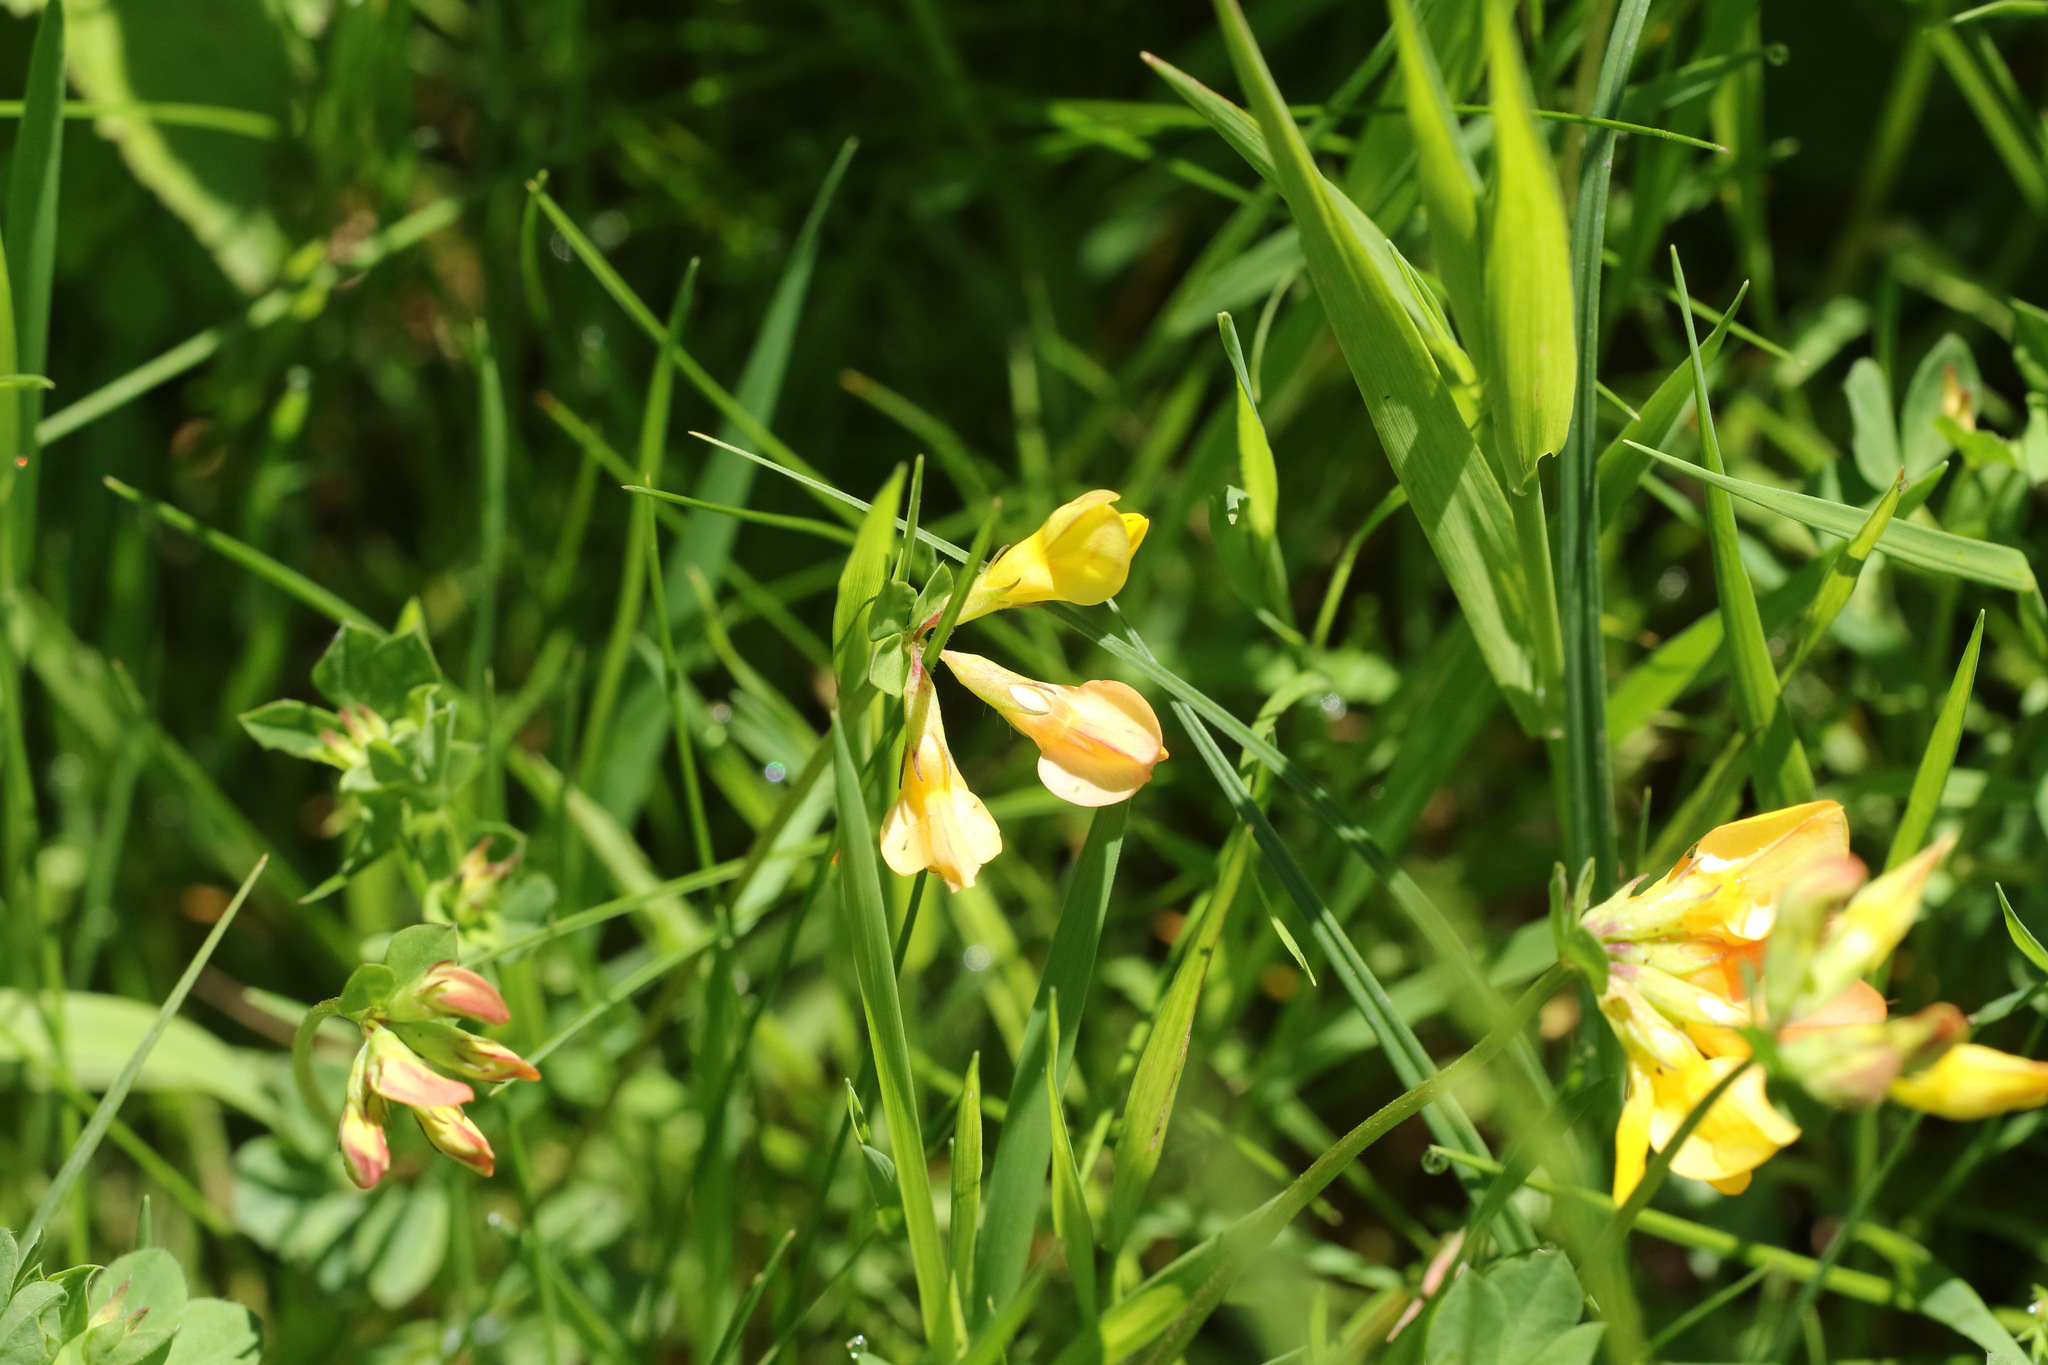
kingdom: Plantae
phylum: Tracheophyta
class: Magnoliopsida
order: Fabales
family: Fabaceae
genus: Lotus
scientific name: Lotus corniculatus
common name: Common bird's-foot-trefoil
